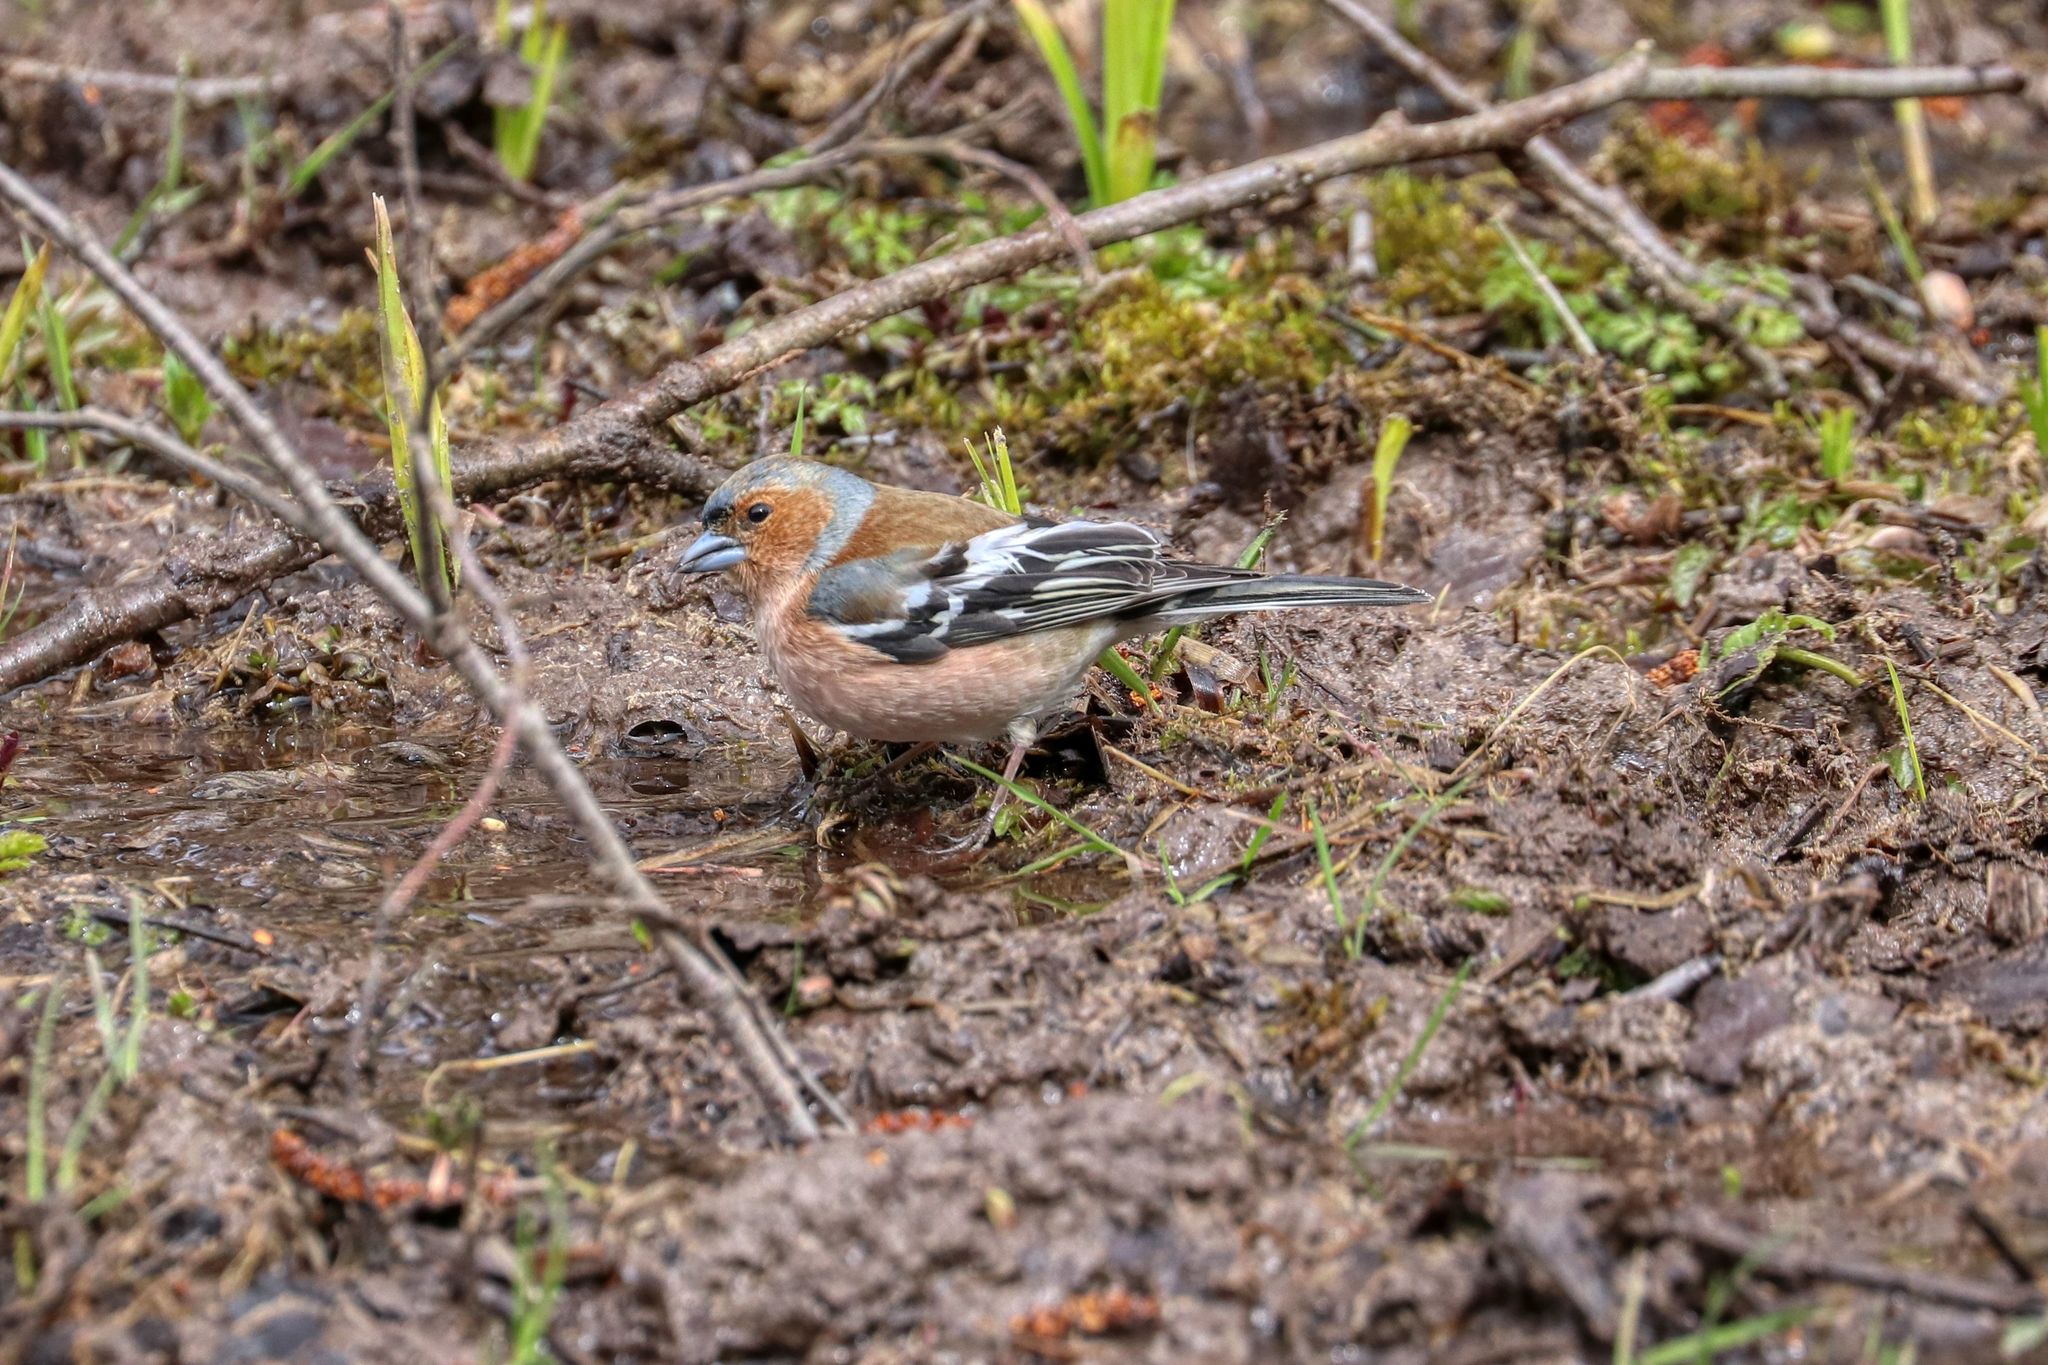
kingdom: Animalia
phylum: Chordata
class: Aves
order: Passeriformes
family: Fringillidae
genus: Fringilla
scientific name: Fringilla coelebs
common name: Common chaffinch
